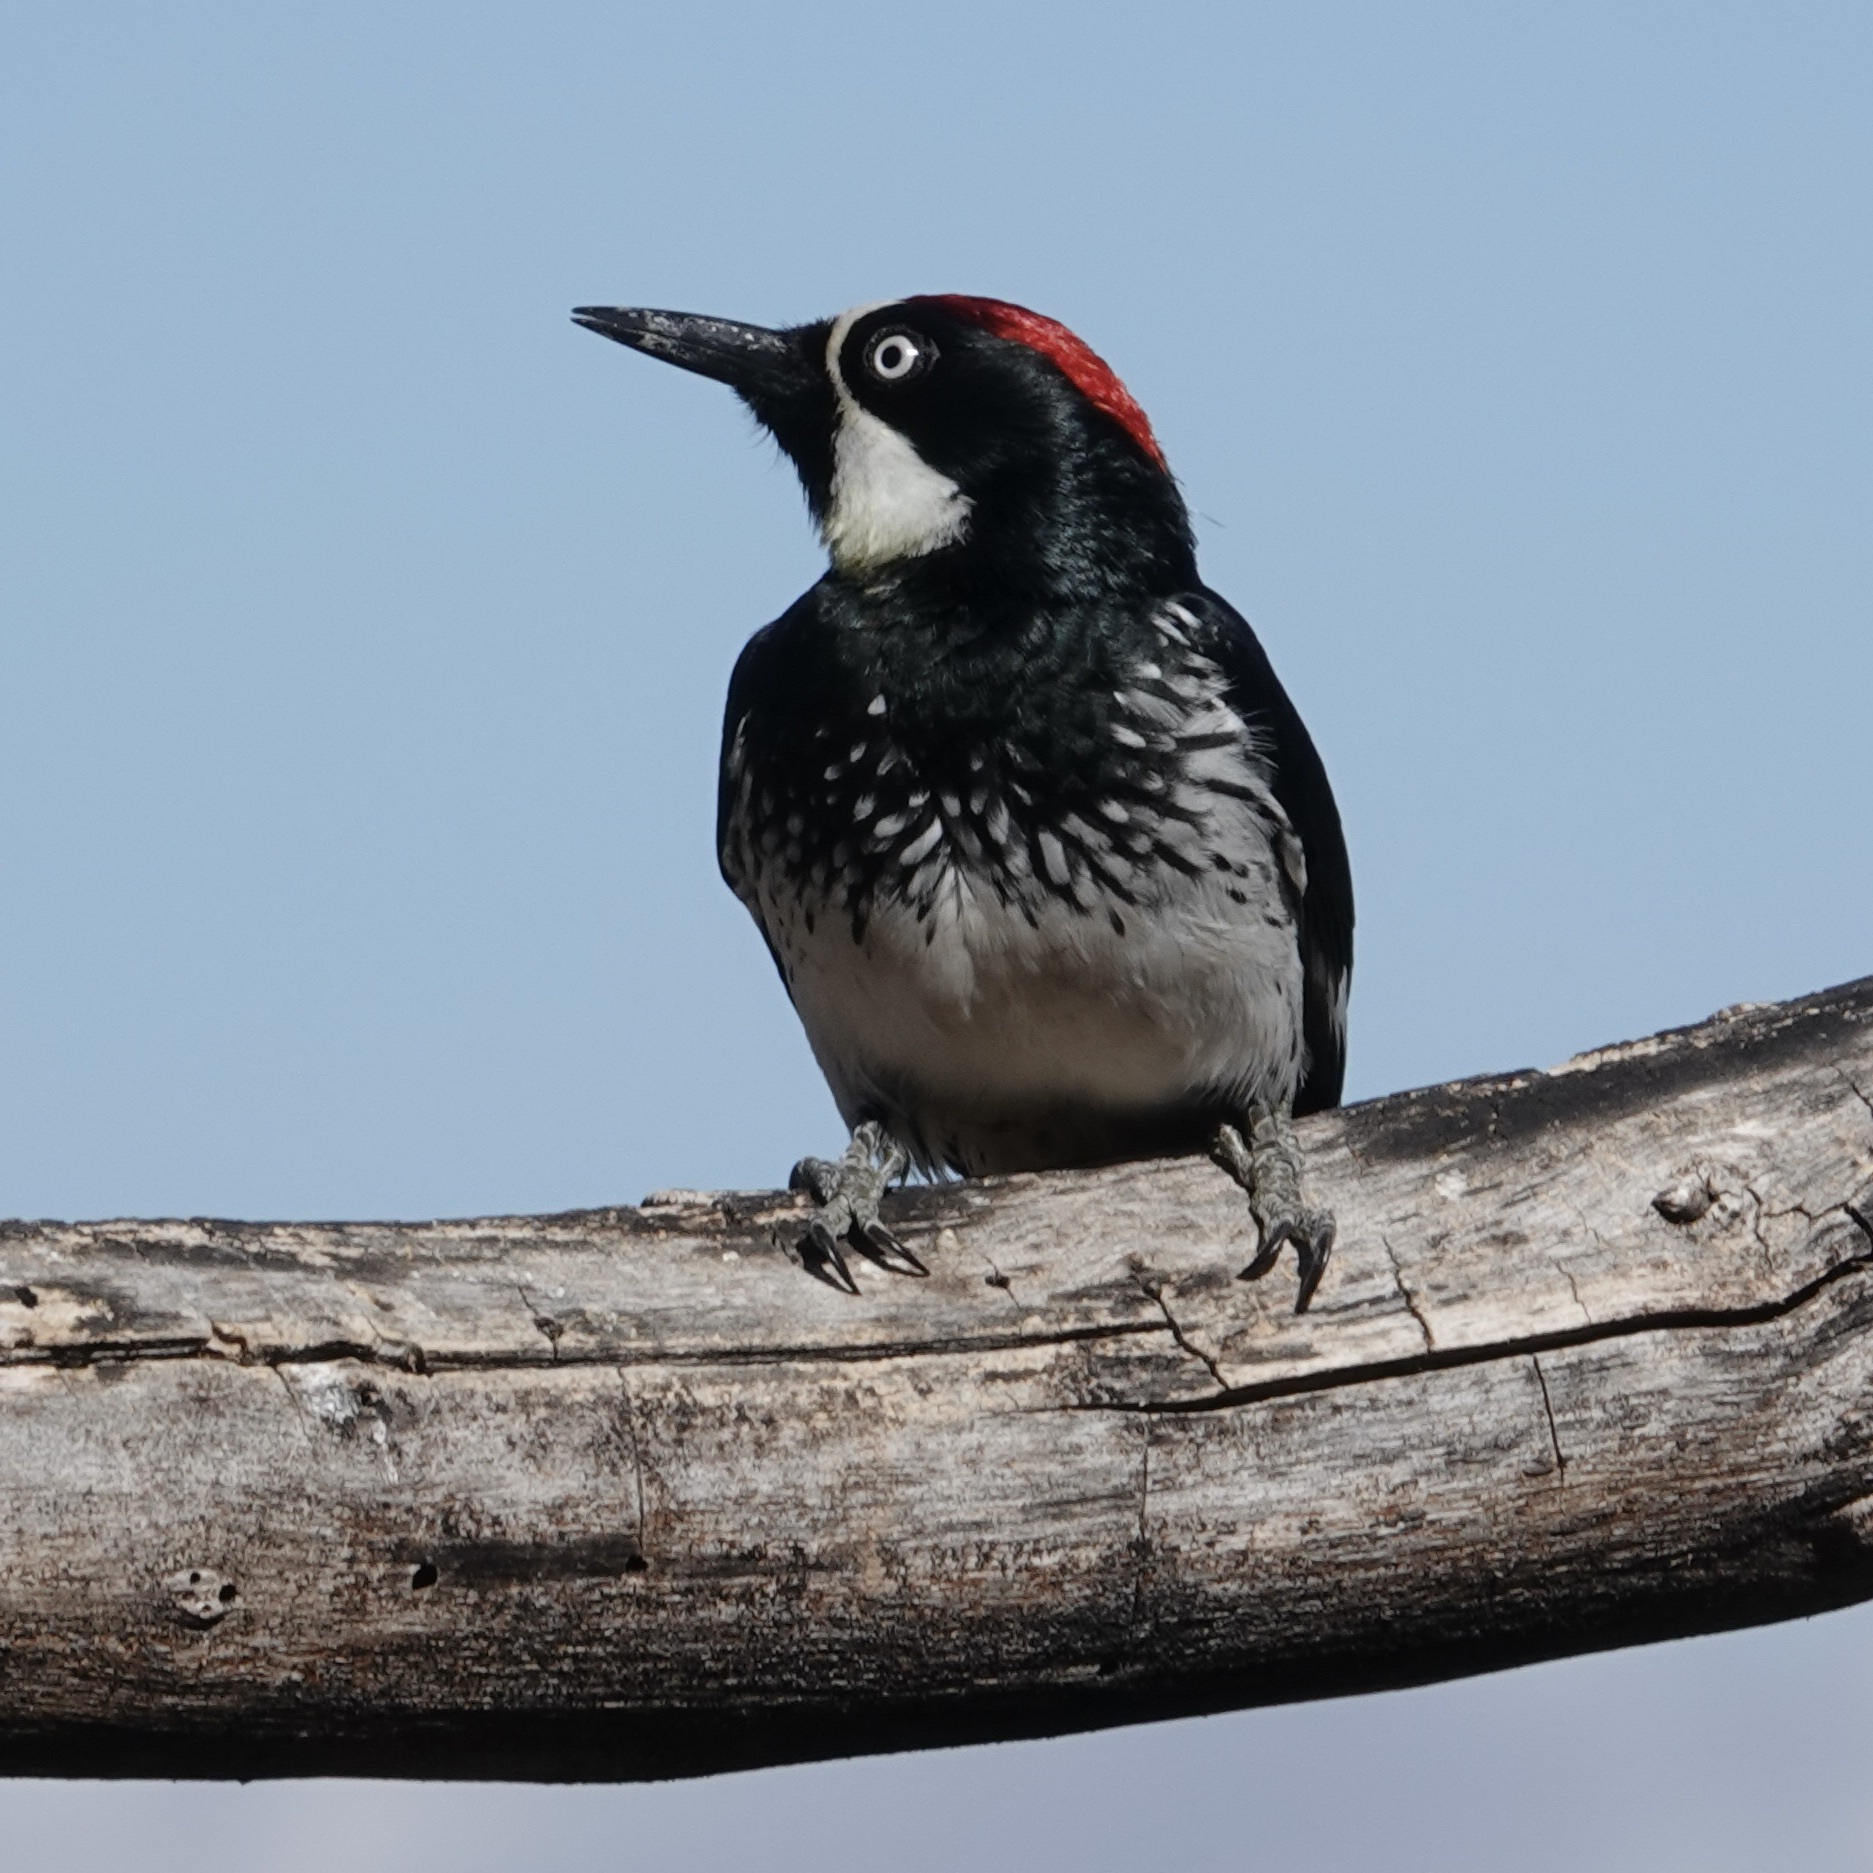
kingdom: Animalia
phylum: Chordata
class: Aves
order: Piciformes
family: Picidae
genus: Melanerpes
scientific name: Melanerpes formicivorus
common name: Acorn woodpecker
